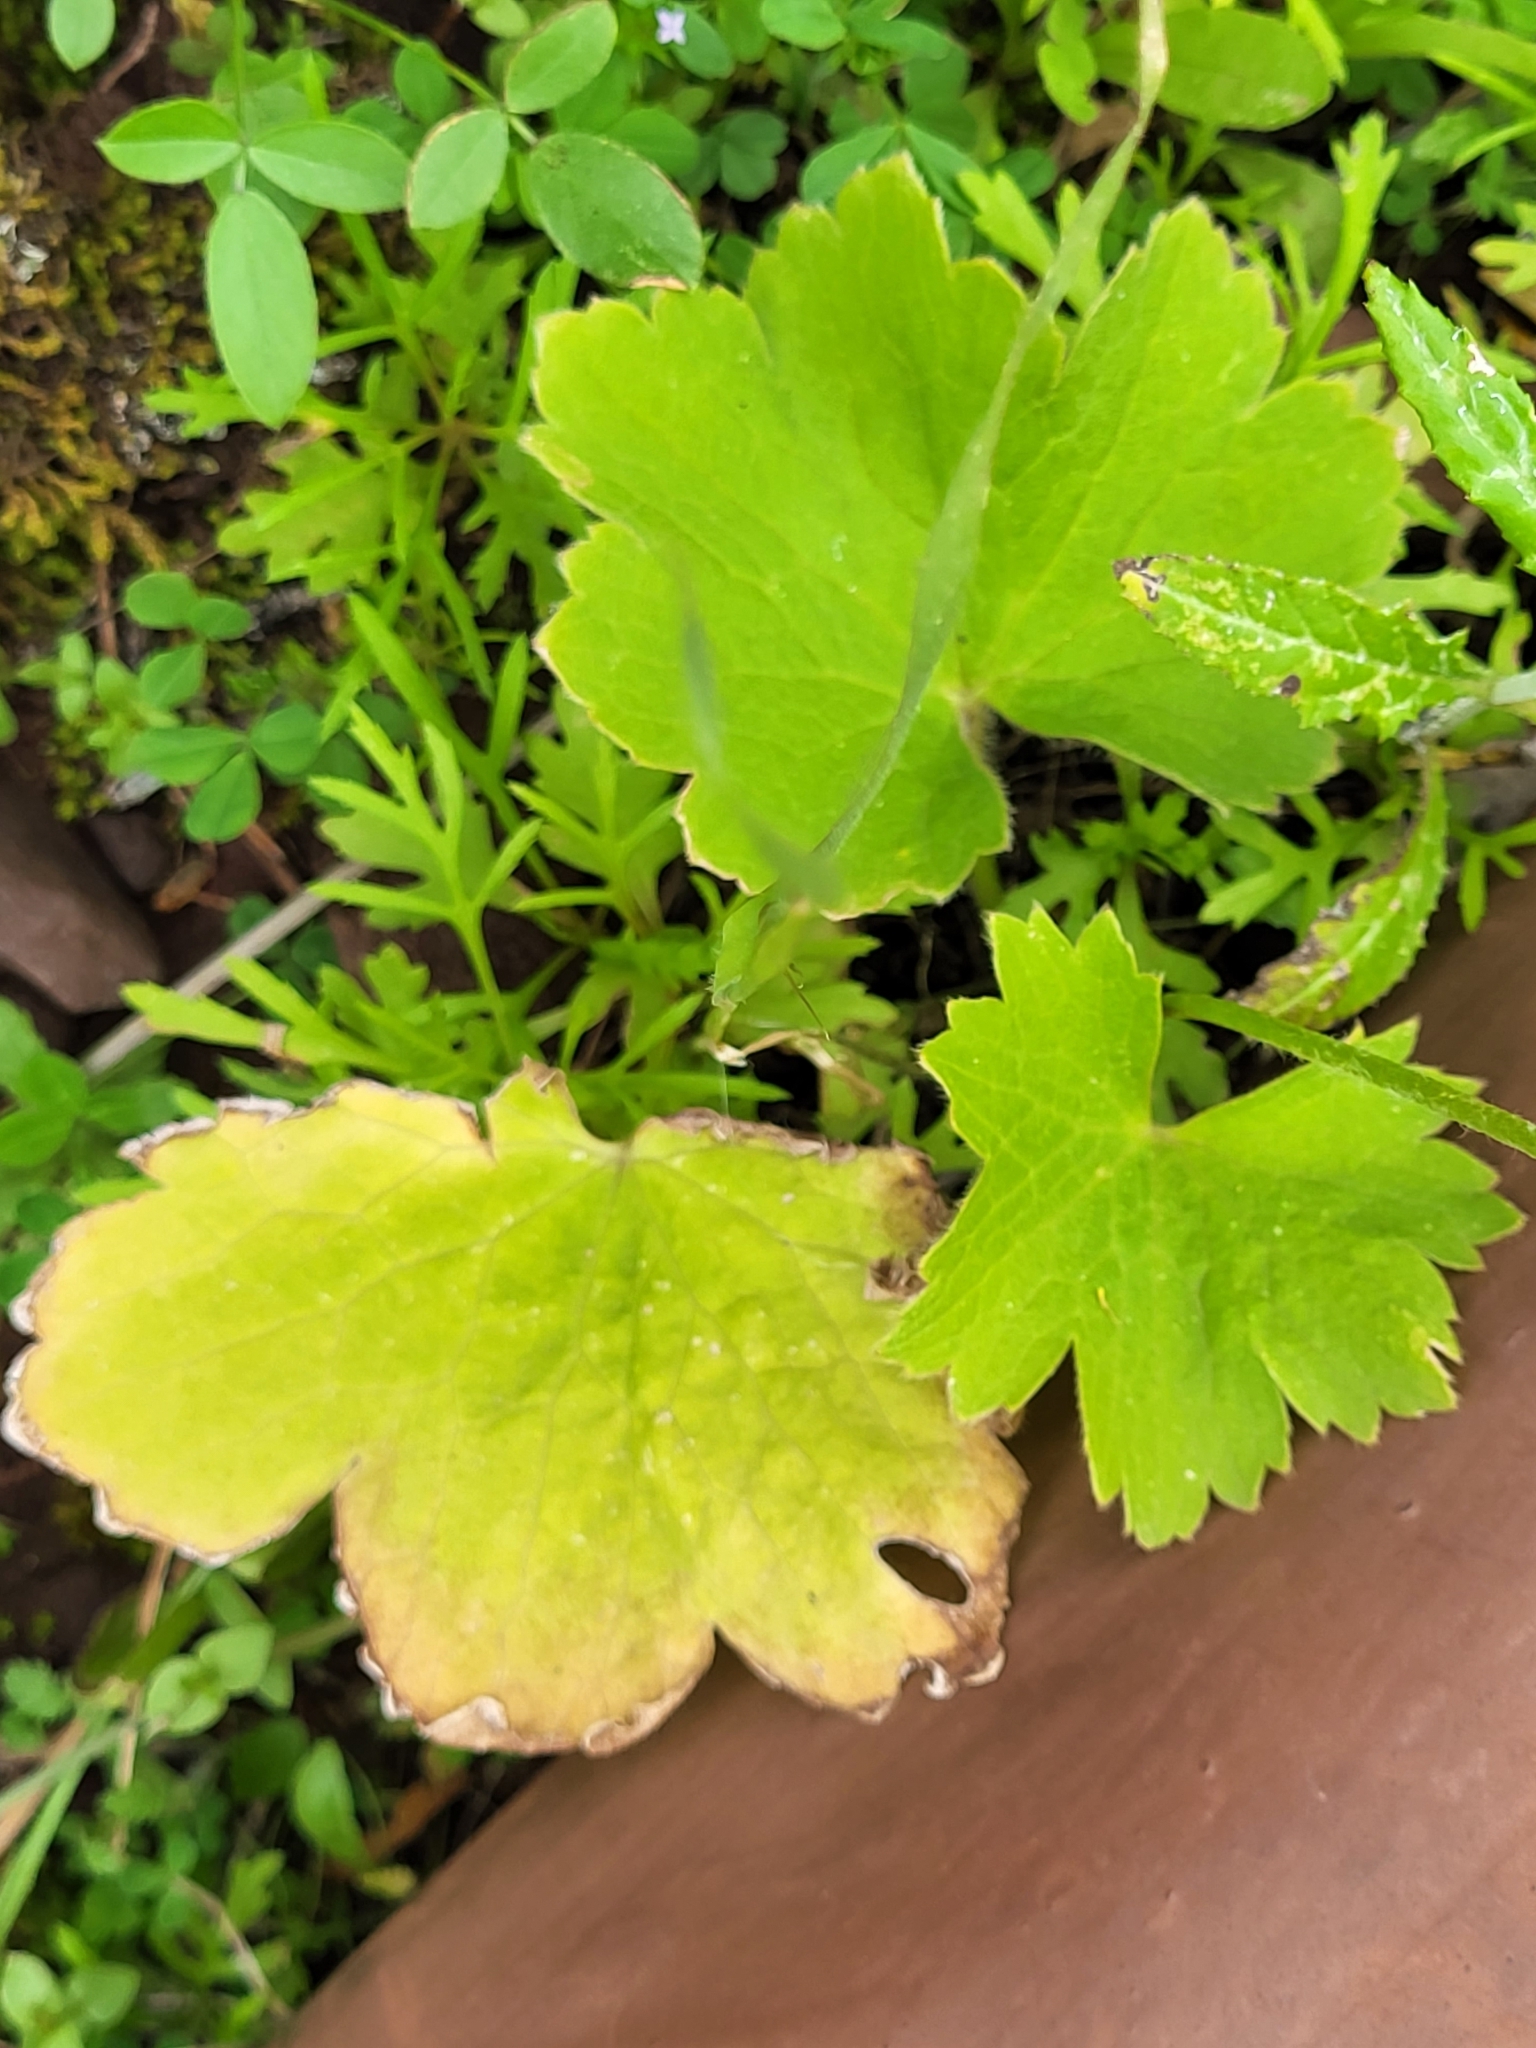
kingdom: Plantae
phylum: Tracheophyta
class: Magnoliopsida
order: Ranunculales
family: Ranunculaceae
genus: Ranunculus
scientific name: Ranunculus cortusifolius
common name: Azores buttercup
